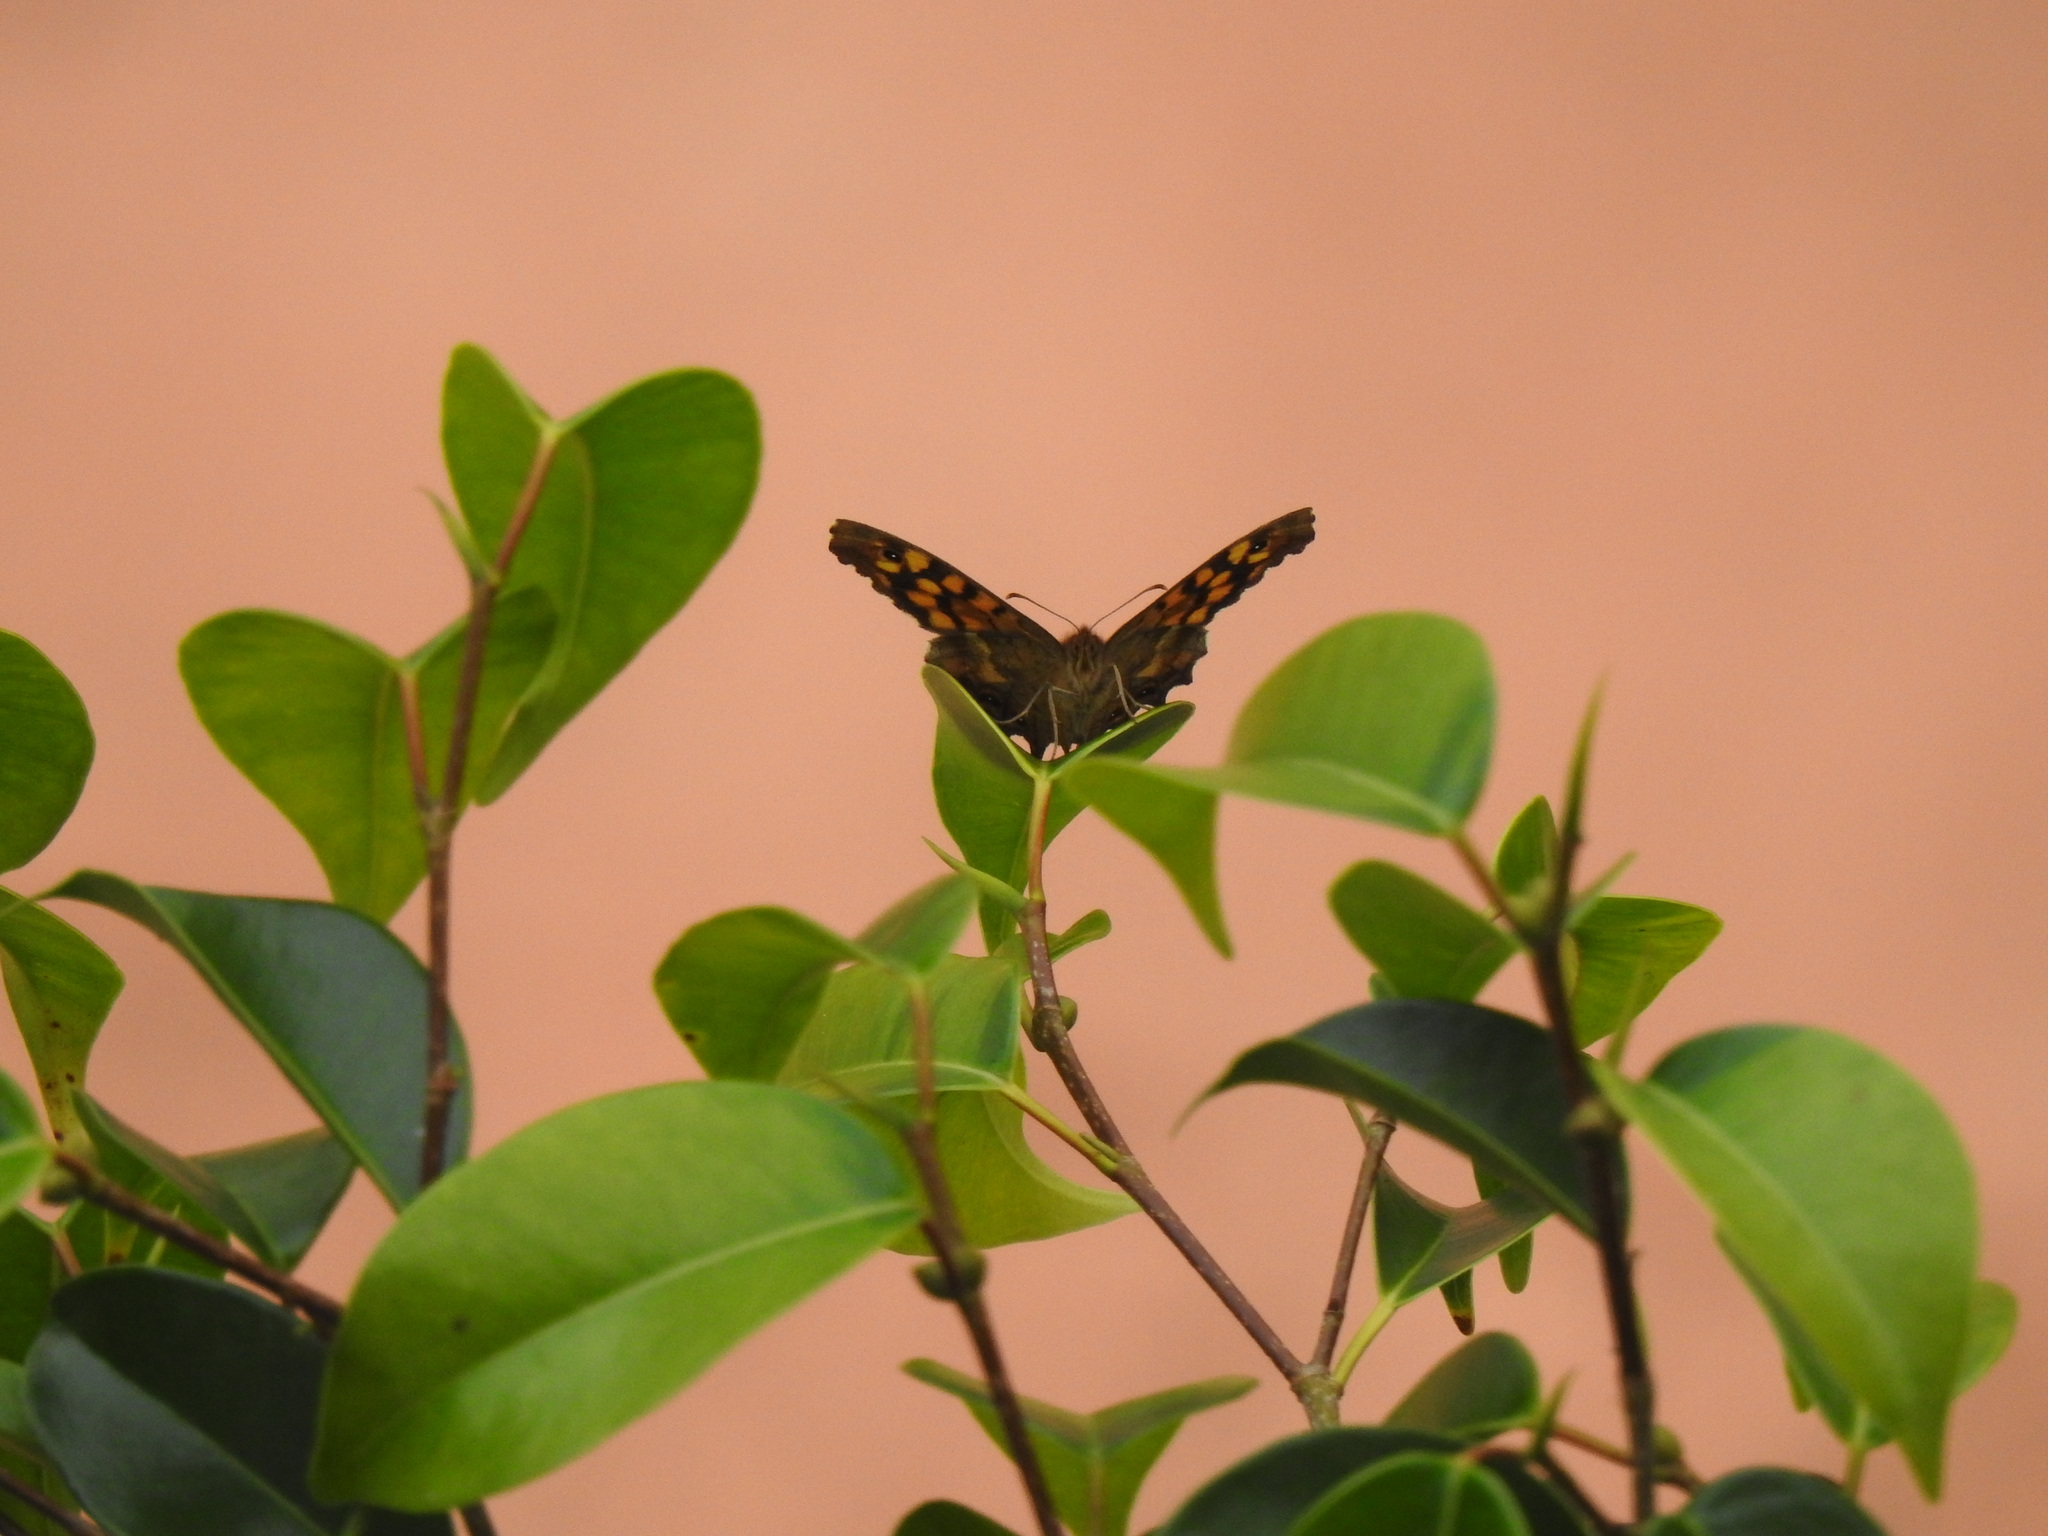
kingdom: Animalia
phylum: Arthropoda
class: Insecta
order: Lepidoptera
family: Nymphalidae
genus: Pararge
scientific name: Pararge aegeria
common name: Speckled wood
